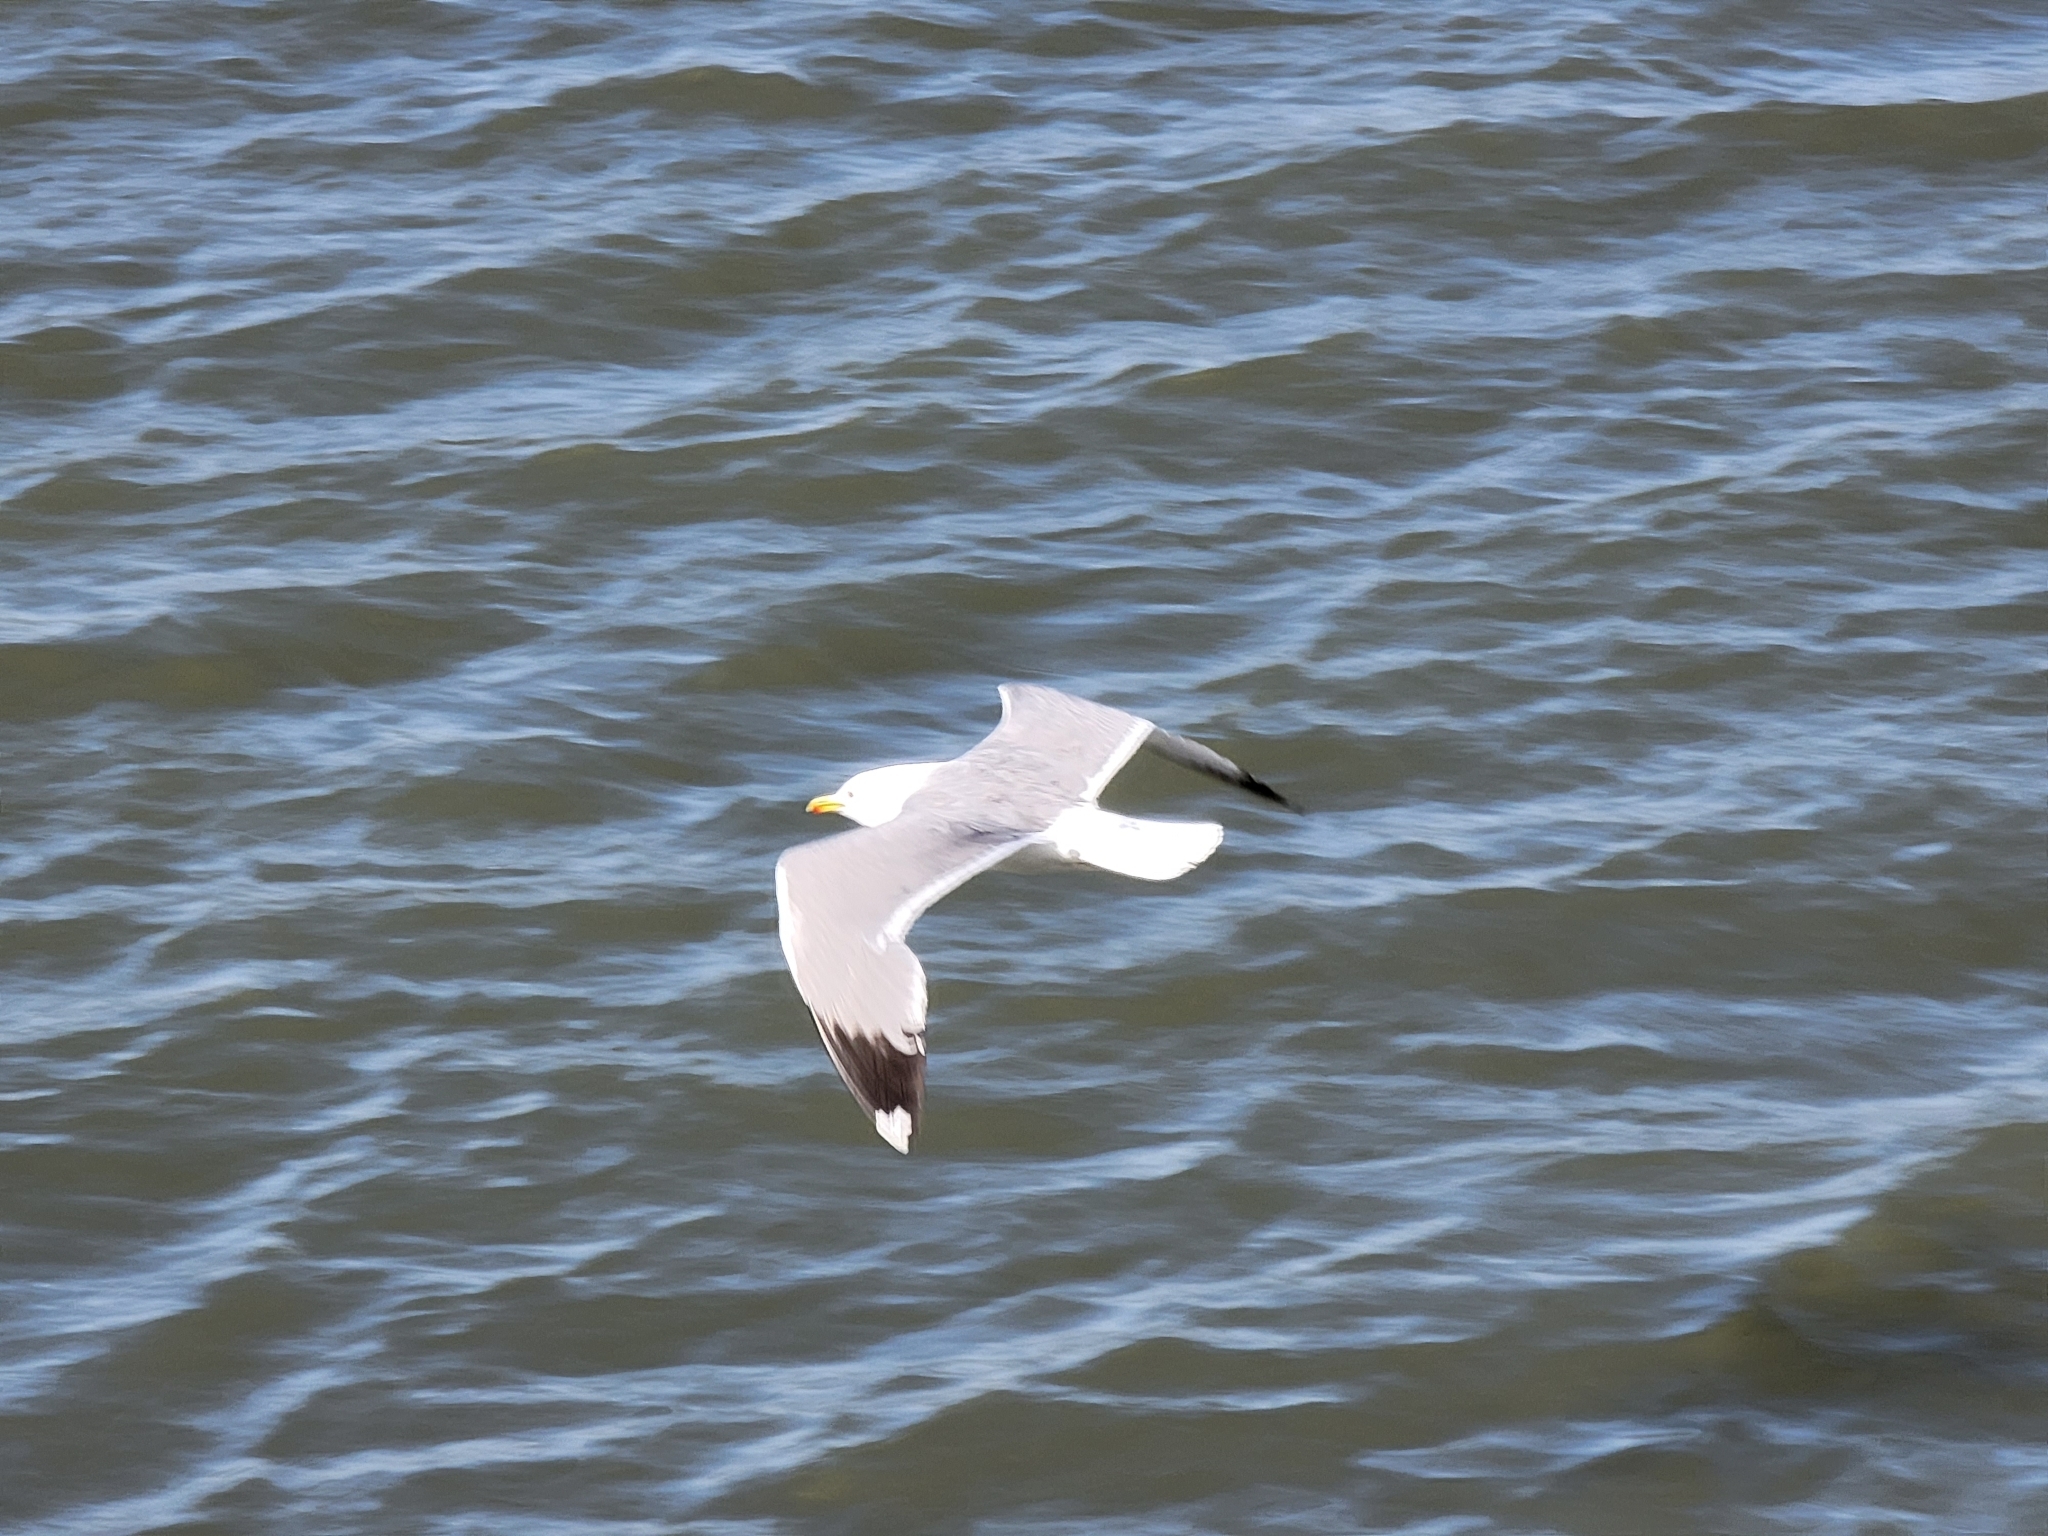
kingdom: Animalia
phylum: Chordata
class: Aves
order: Charadriiformes
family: Laridae
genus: Larus
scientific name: Larus californicus
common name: California gull
